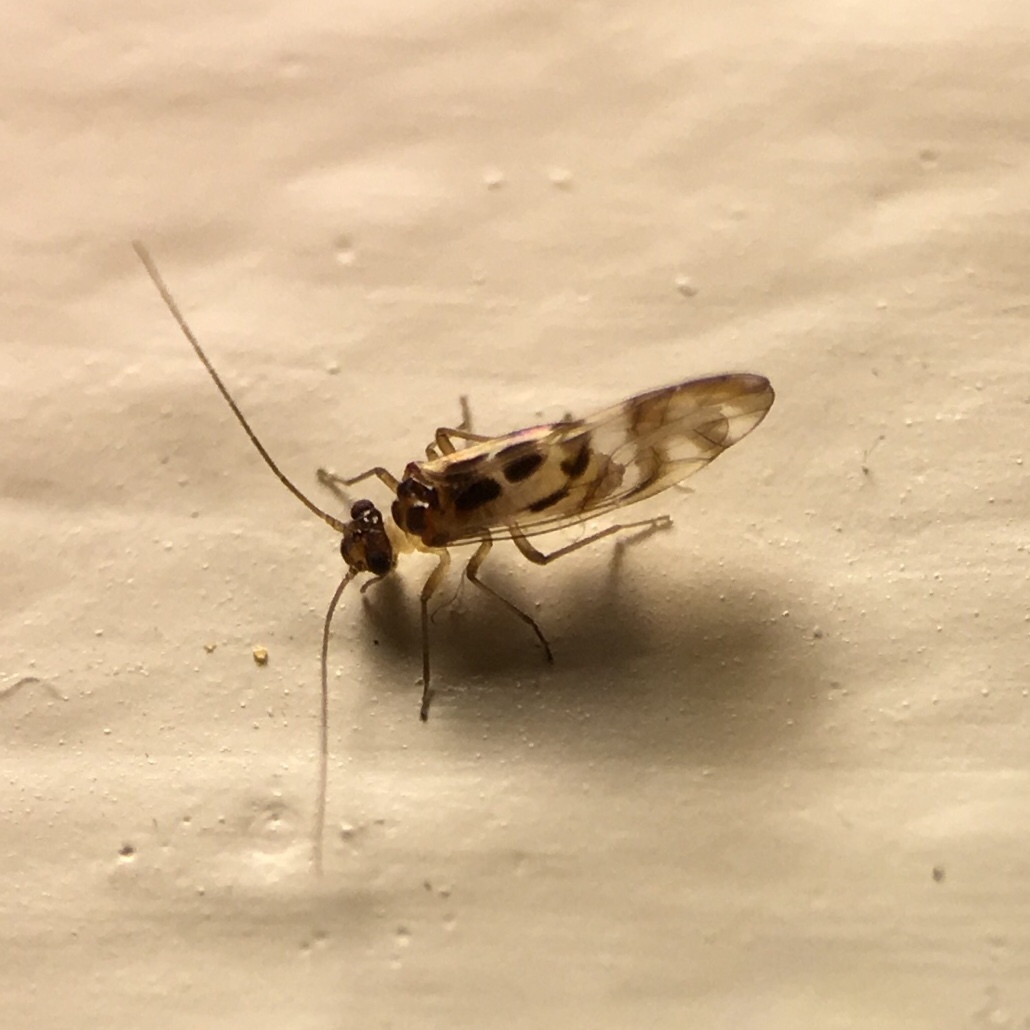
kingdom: Animalia
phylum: Arthropoda
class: Insecta
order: Psocodea
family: Stenopsocidae
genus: Graphopsocus
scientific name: Graphopsocus cruciatus
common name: Lizard bark louse
